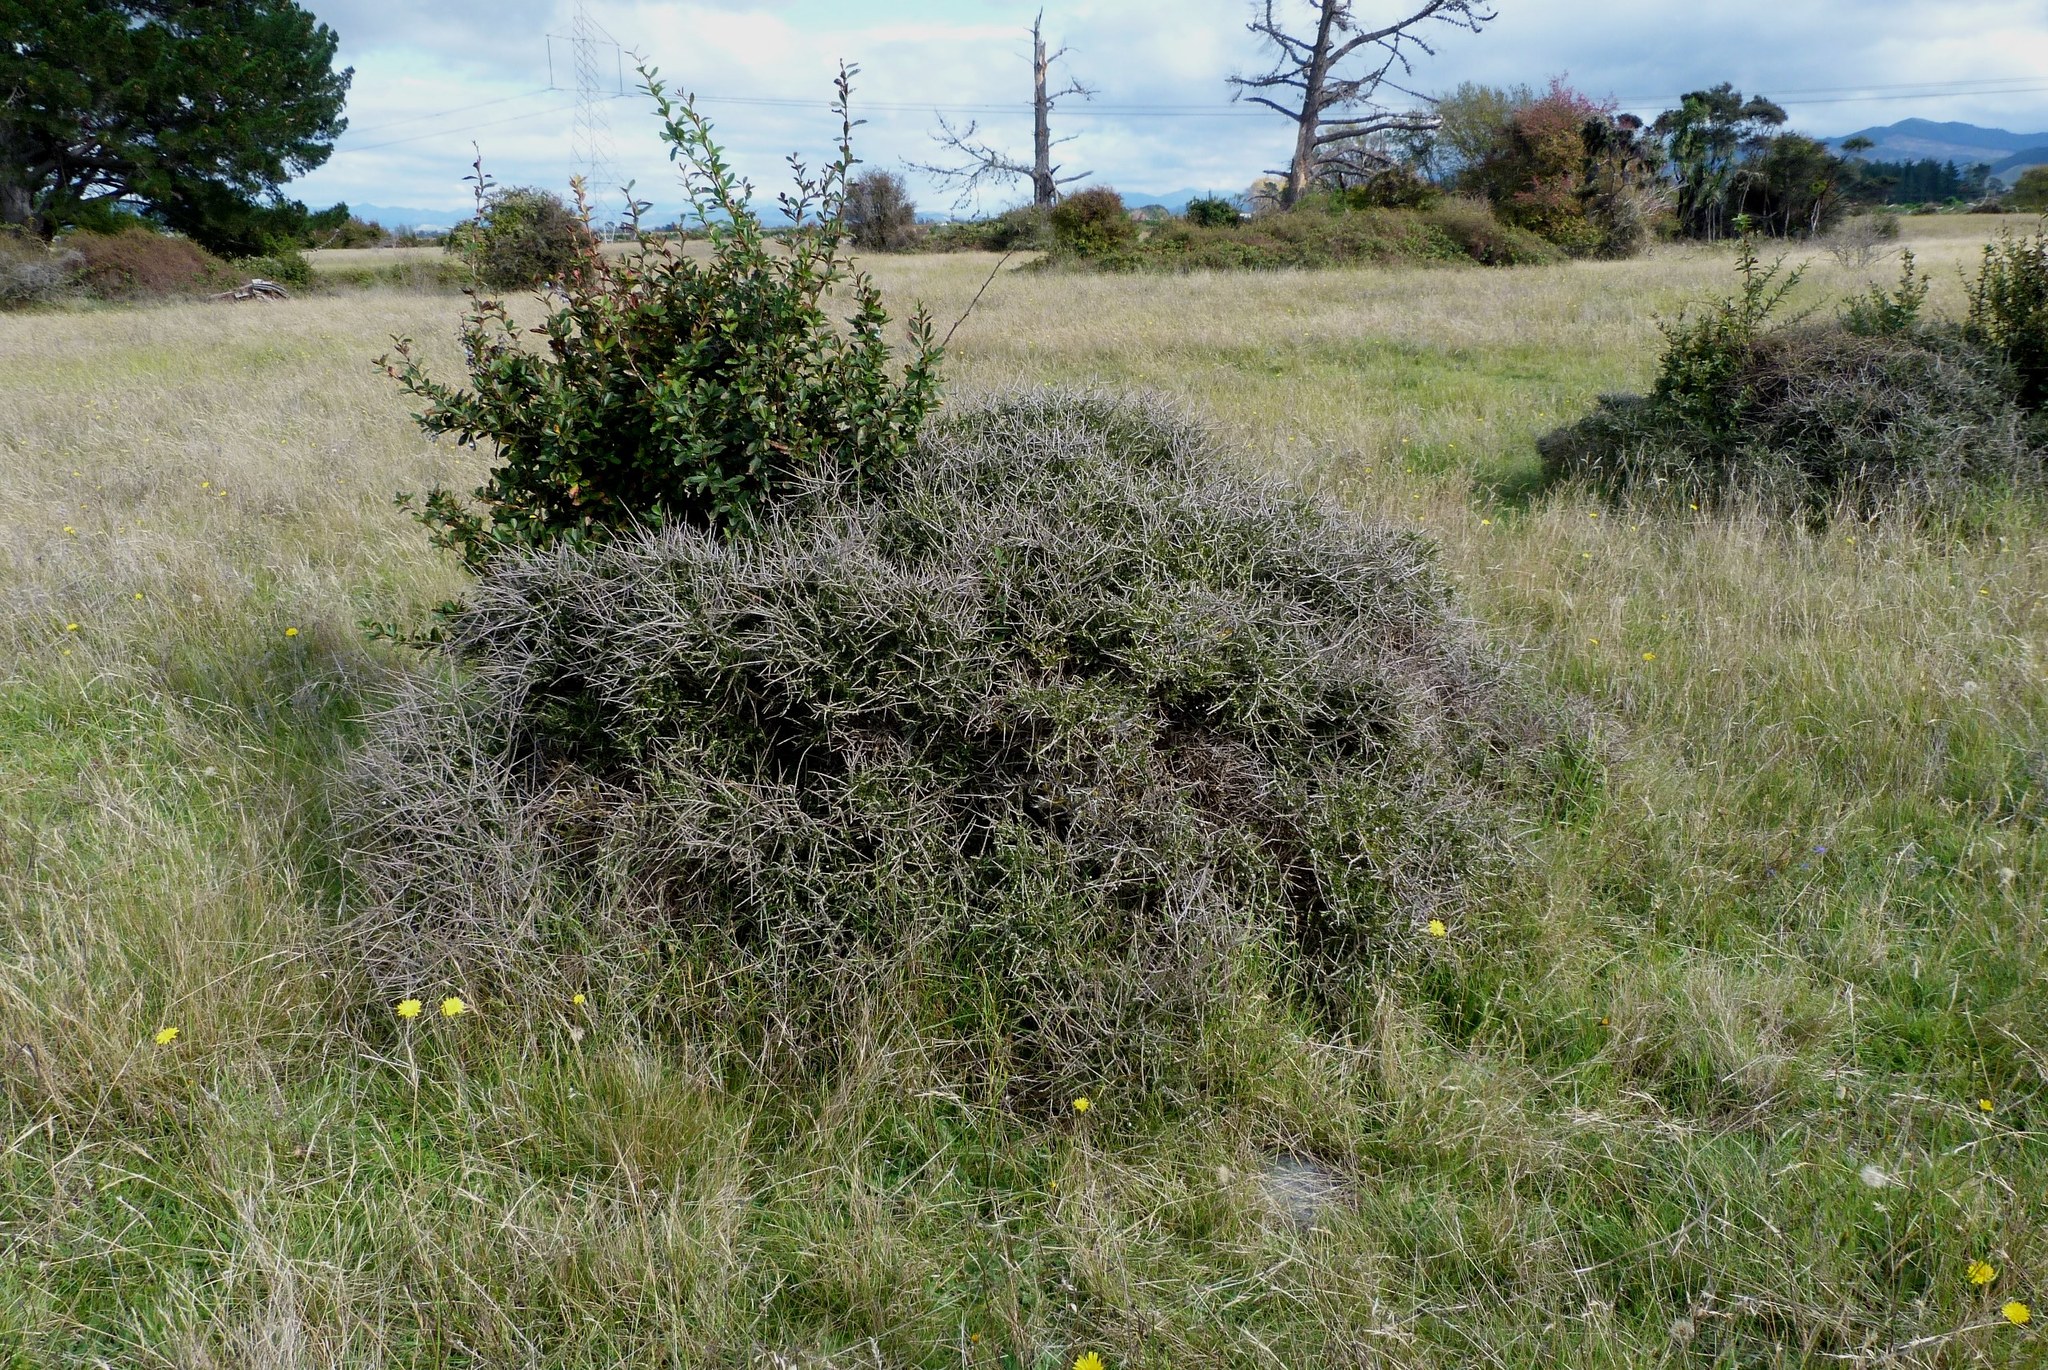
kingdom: Plantae
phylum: Tracheophyta
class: Magnoliopsida
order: Ranunculales
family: Berberidaceae
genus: Berberis
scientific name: Berberis glaucocarpa
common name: Great barberry
